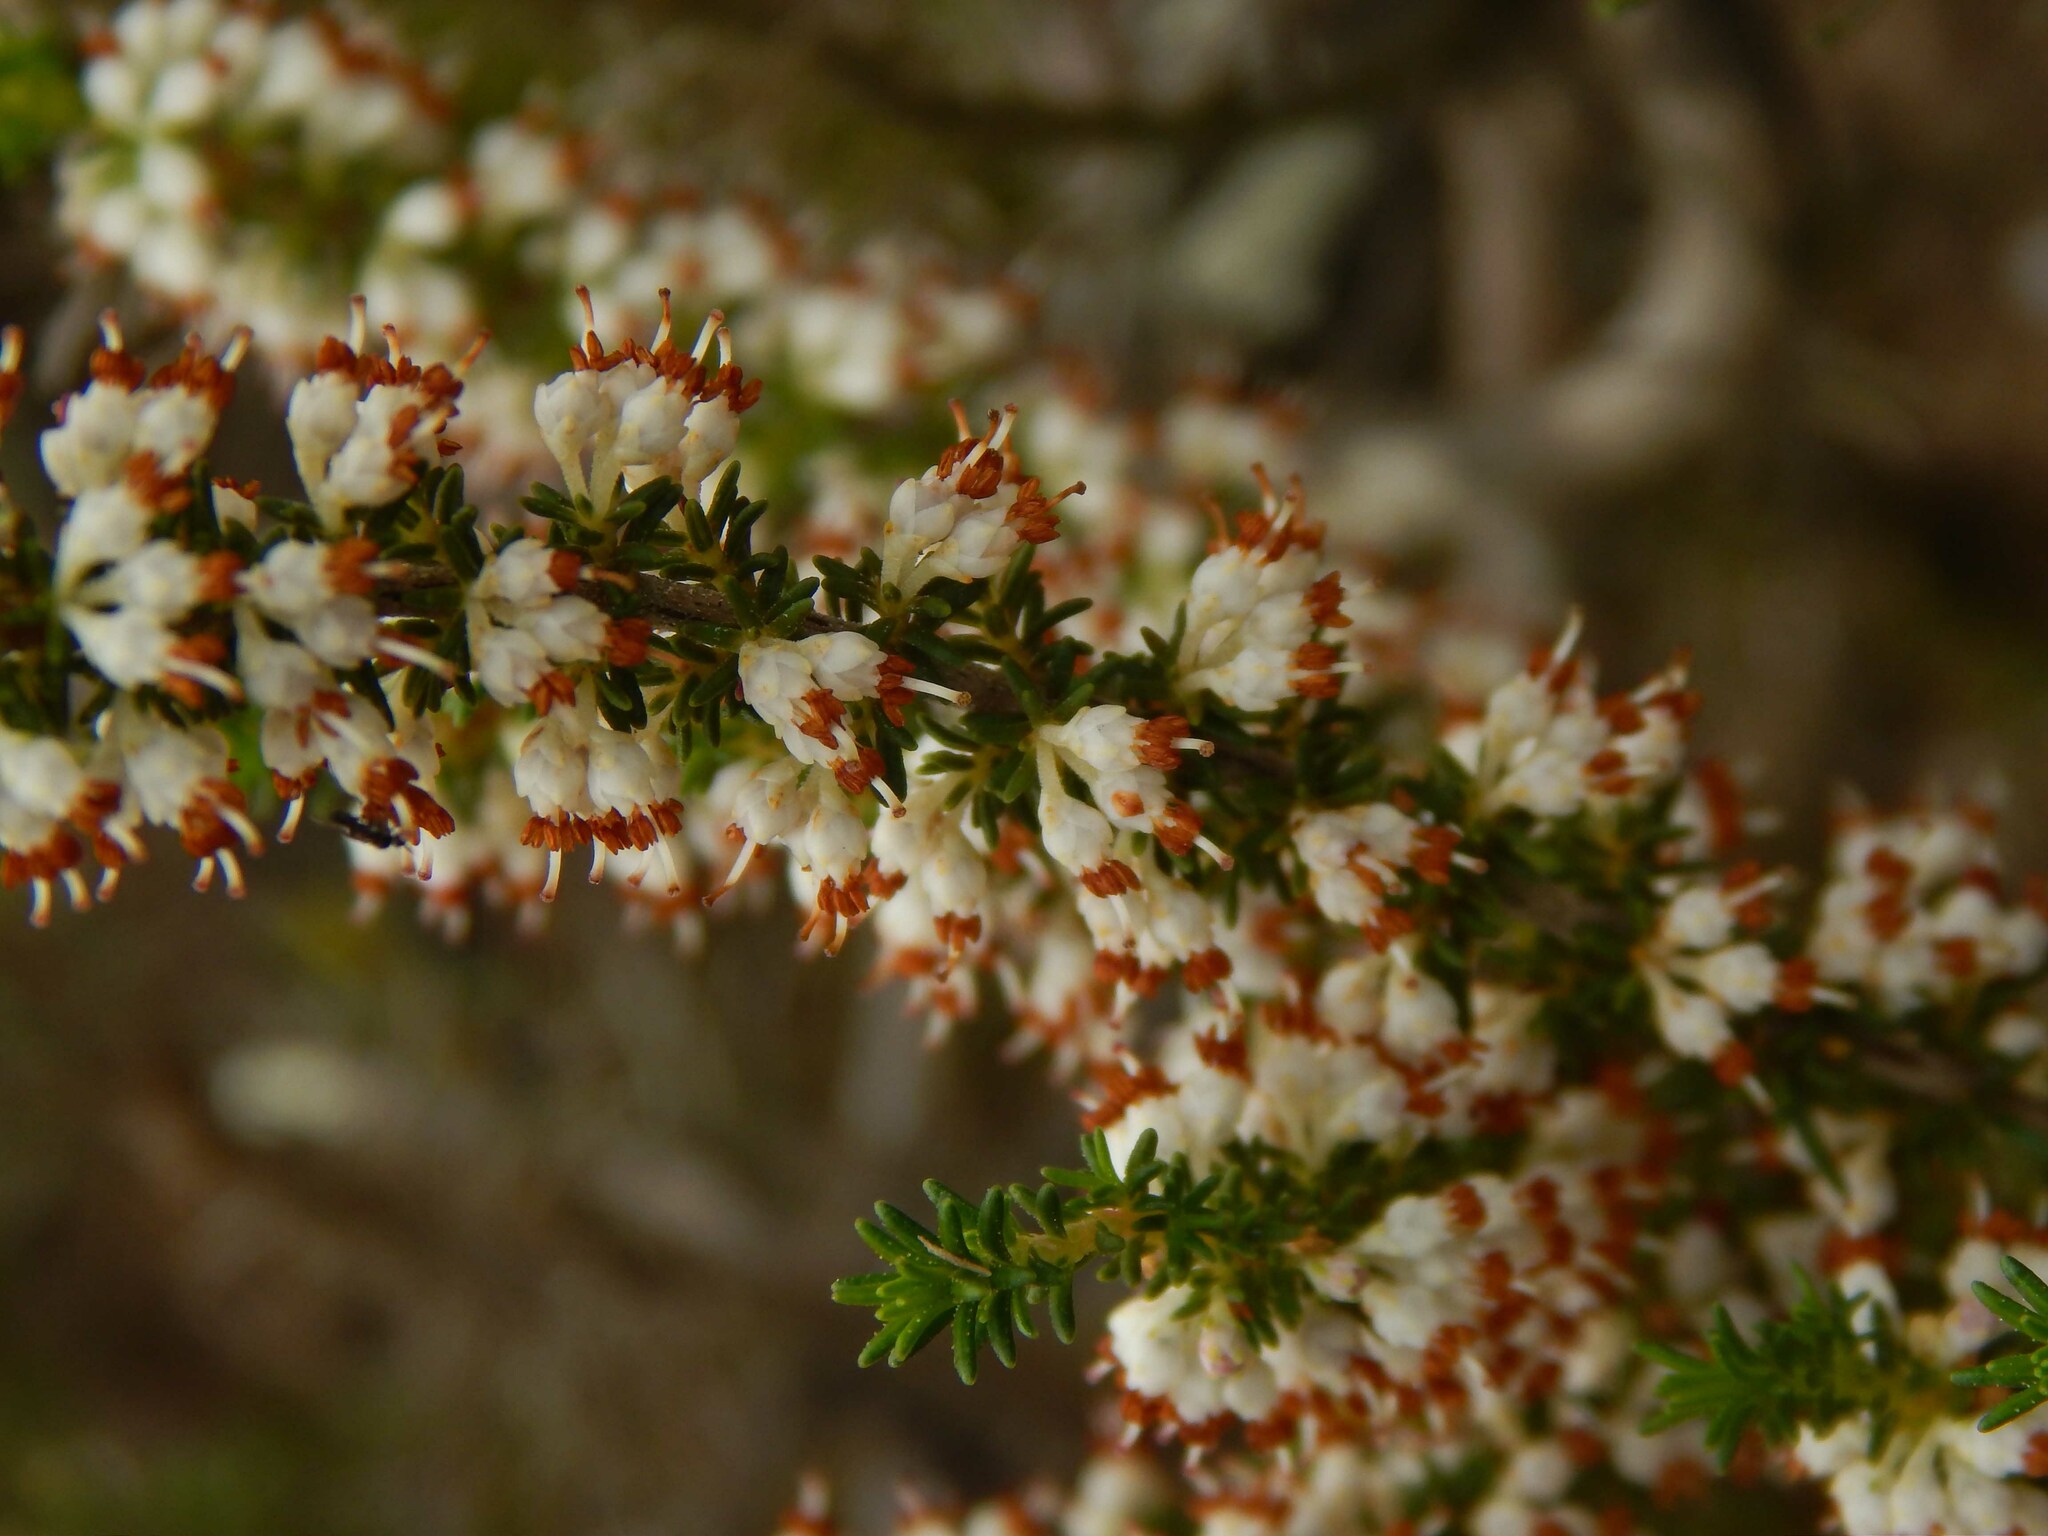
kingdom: Plantae
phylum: Tracheophyta
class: Magnoliopsida
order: Ericales
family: Ericaceae
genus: Erica
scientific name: Erica imbricata
